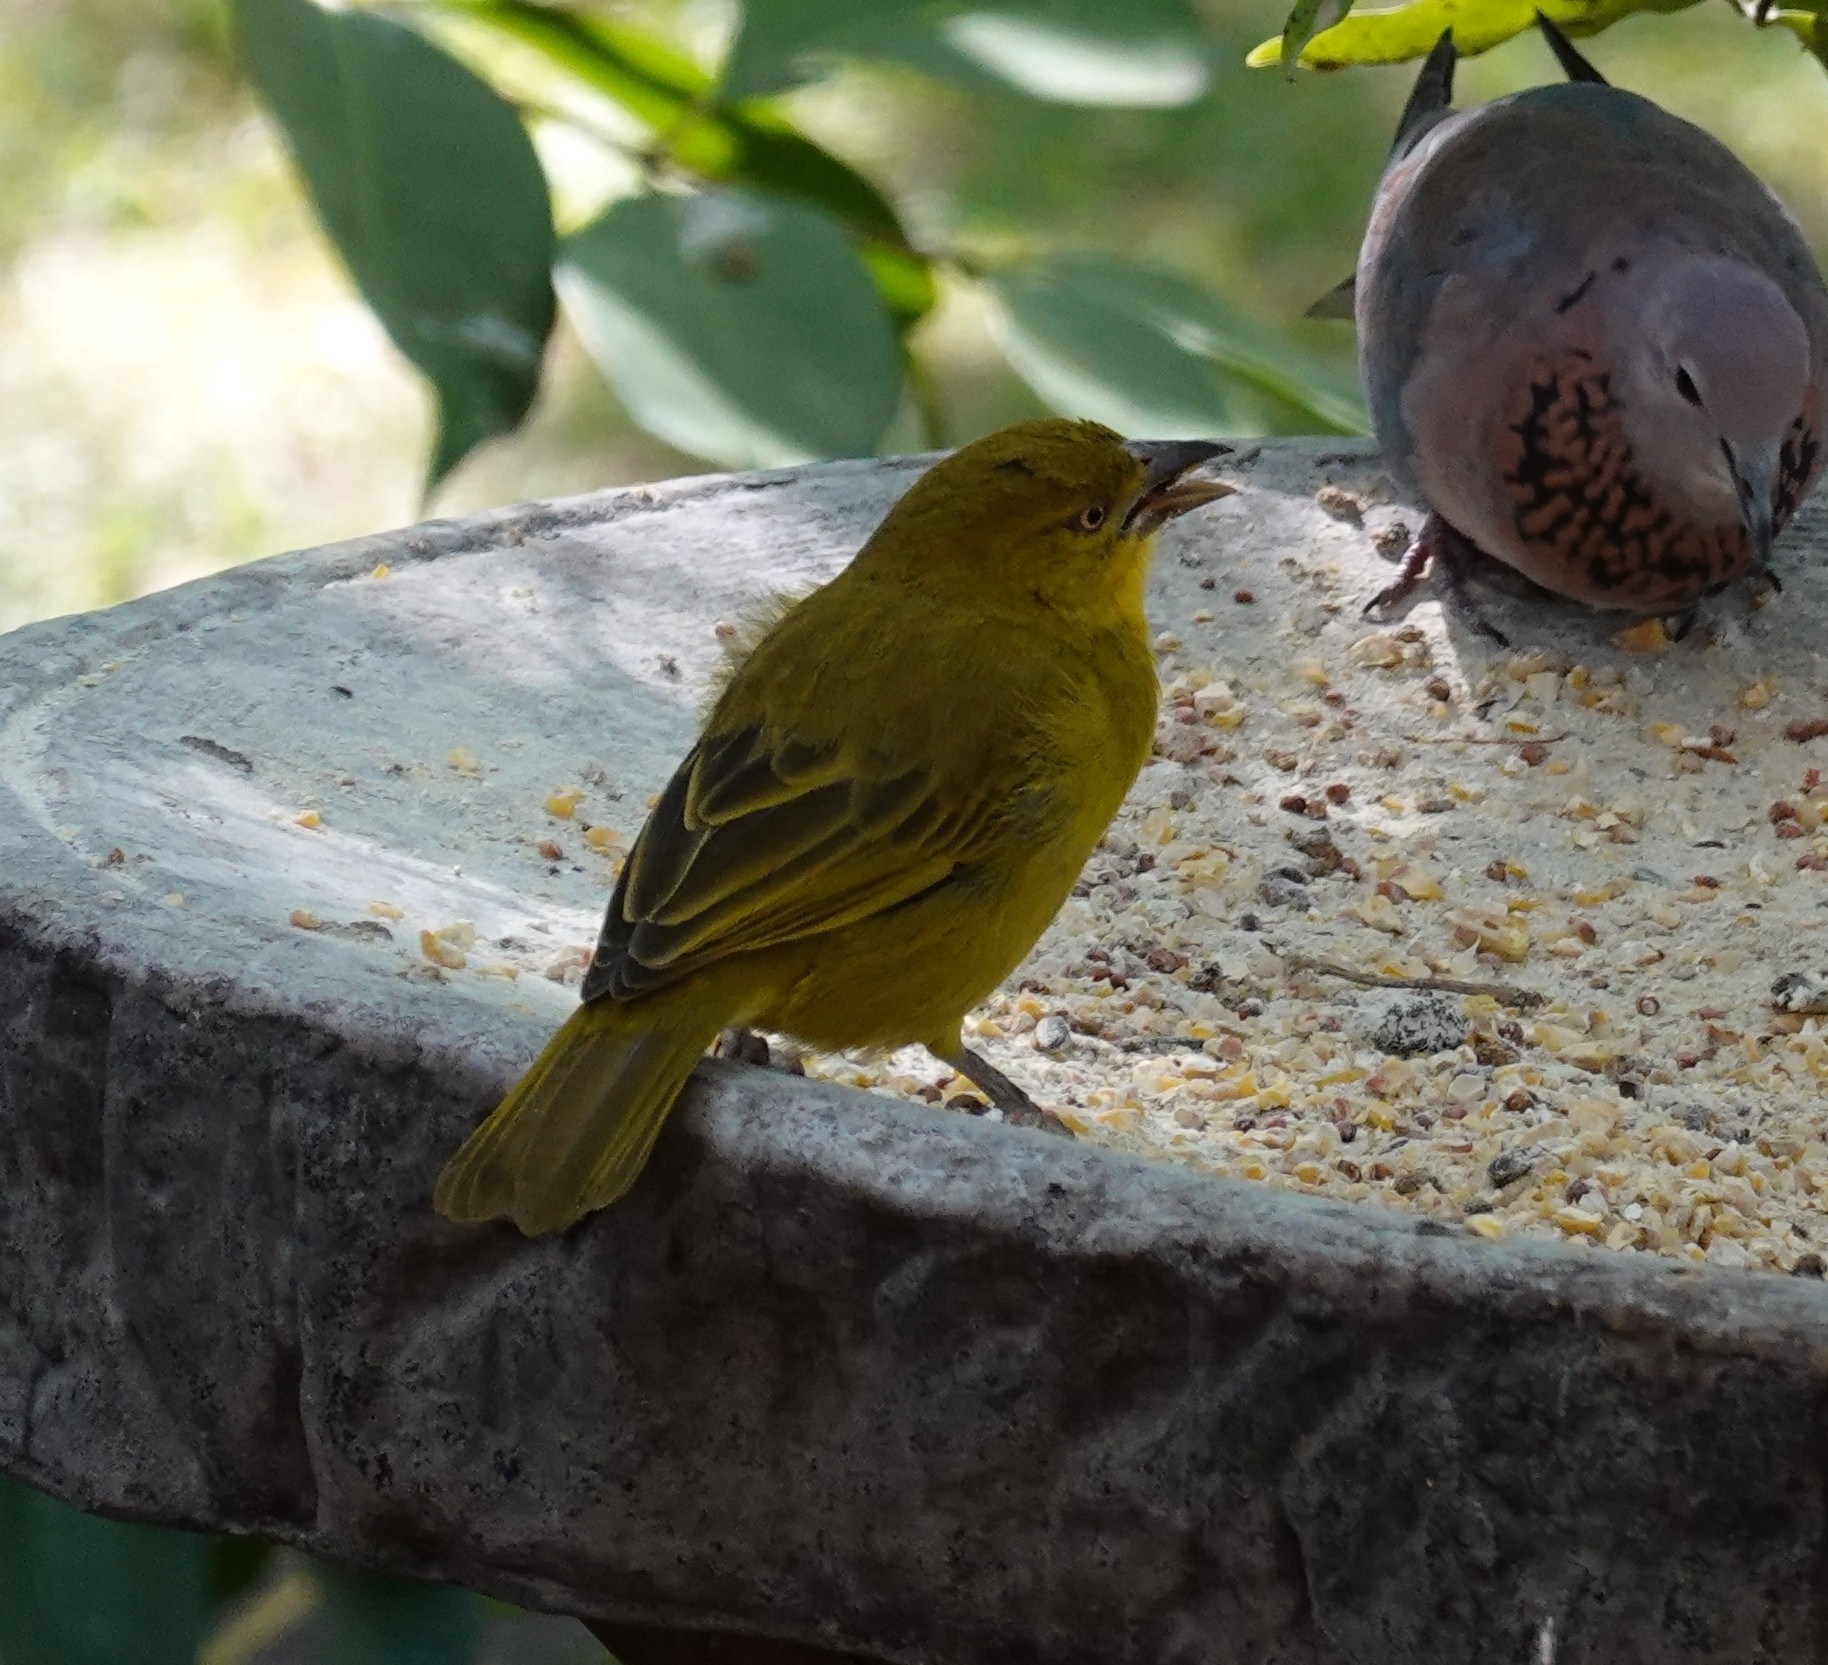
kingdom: Animalia
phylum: Chordata
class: Aves
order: Passeriformes
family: Ploceidae
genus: Ploceus
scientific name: Ploceus xanthops
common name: Holub's golden weaver
